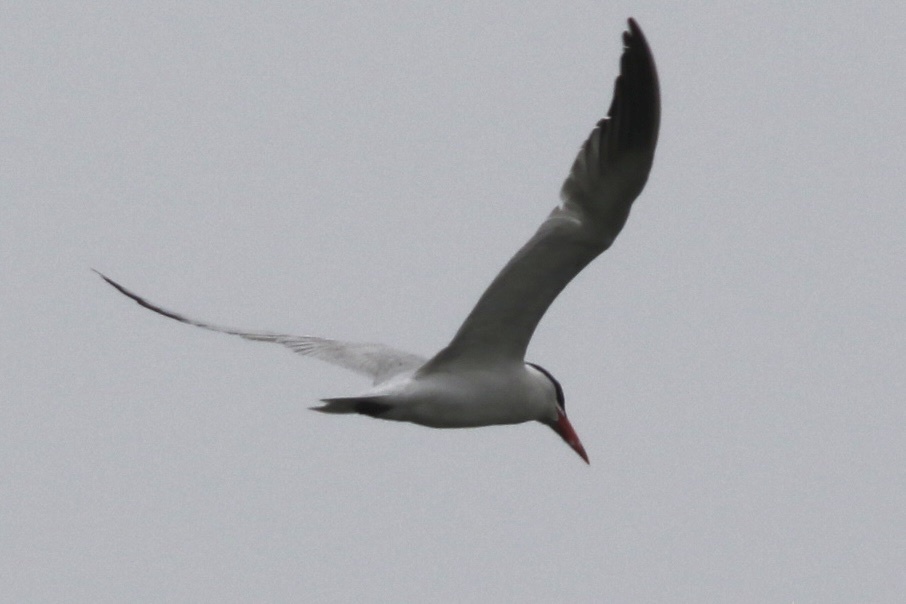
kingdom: Animalia
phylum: Chordata
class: Aves
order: Charadriiformes
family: Laridae
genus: Hydroprogne
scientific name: Hydroprogne caspia
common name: Caspian tern
